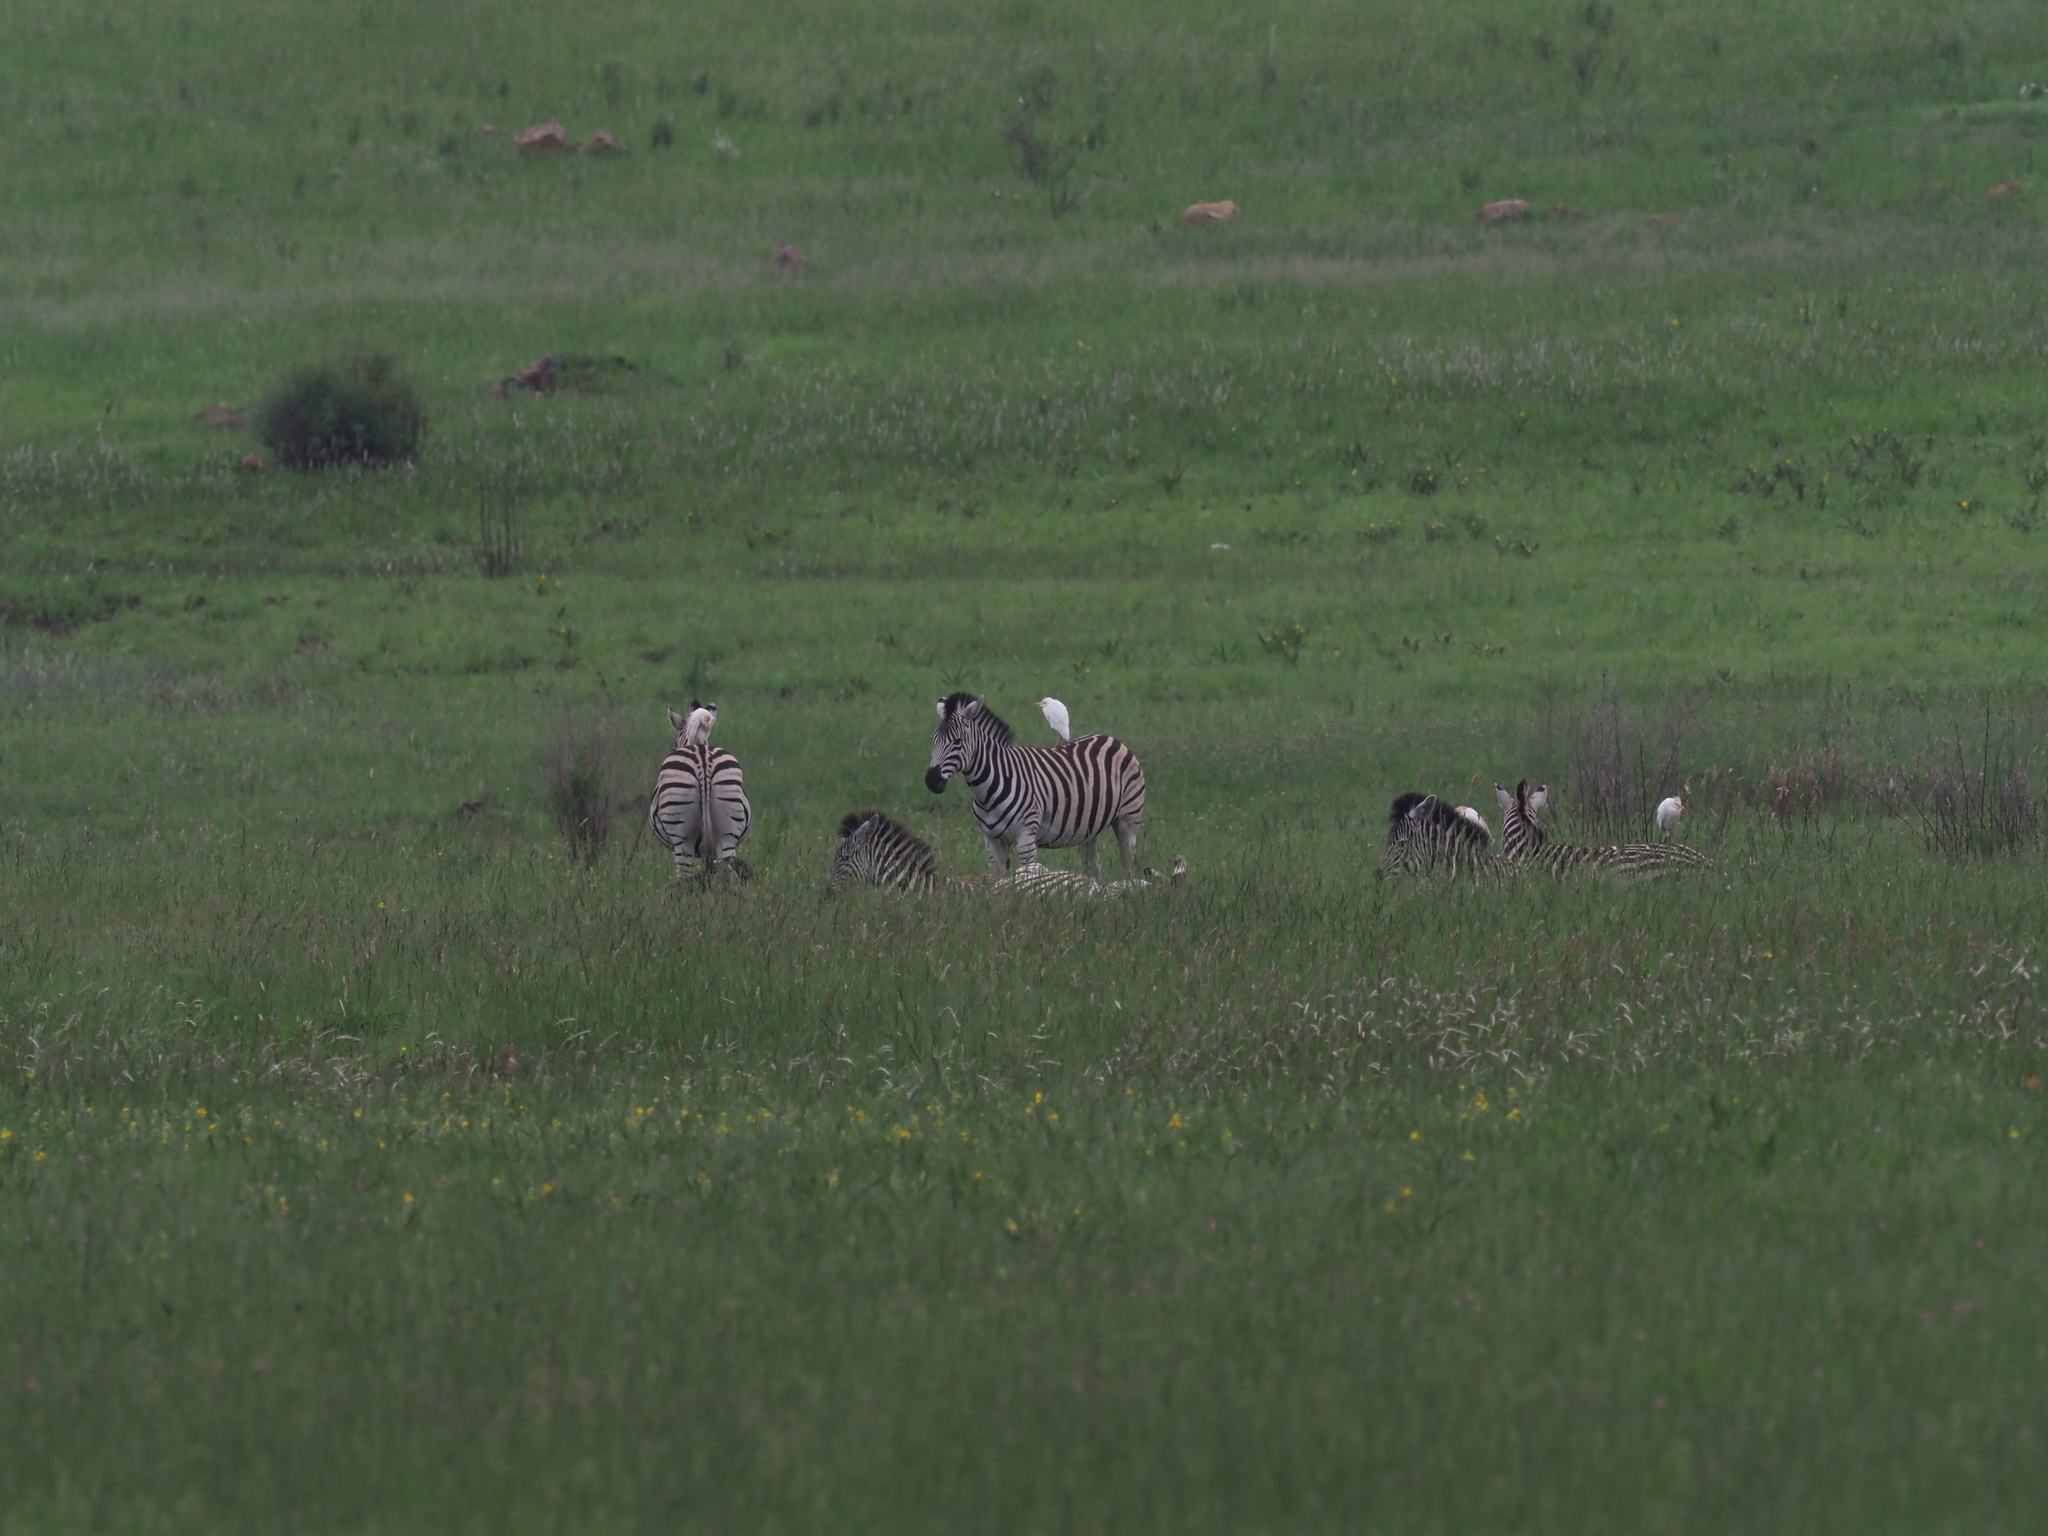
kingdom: Animalia
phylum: Chordata
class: Aves
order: Pelecaniformes
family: Ardeidae
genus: Bubulcus
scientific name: Bubulcus ibis
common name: Cattle egret
